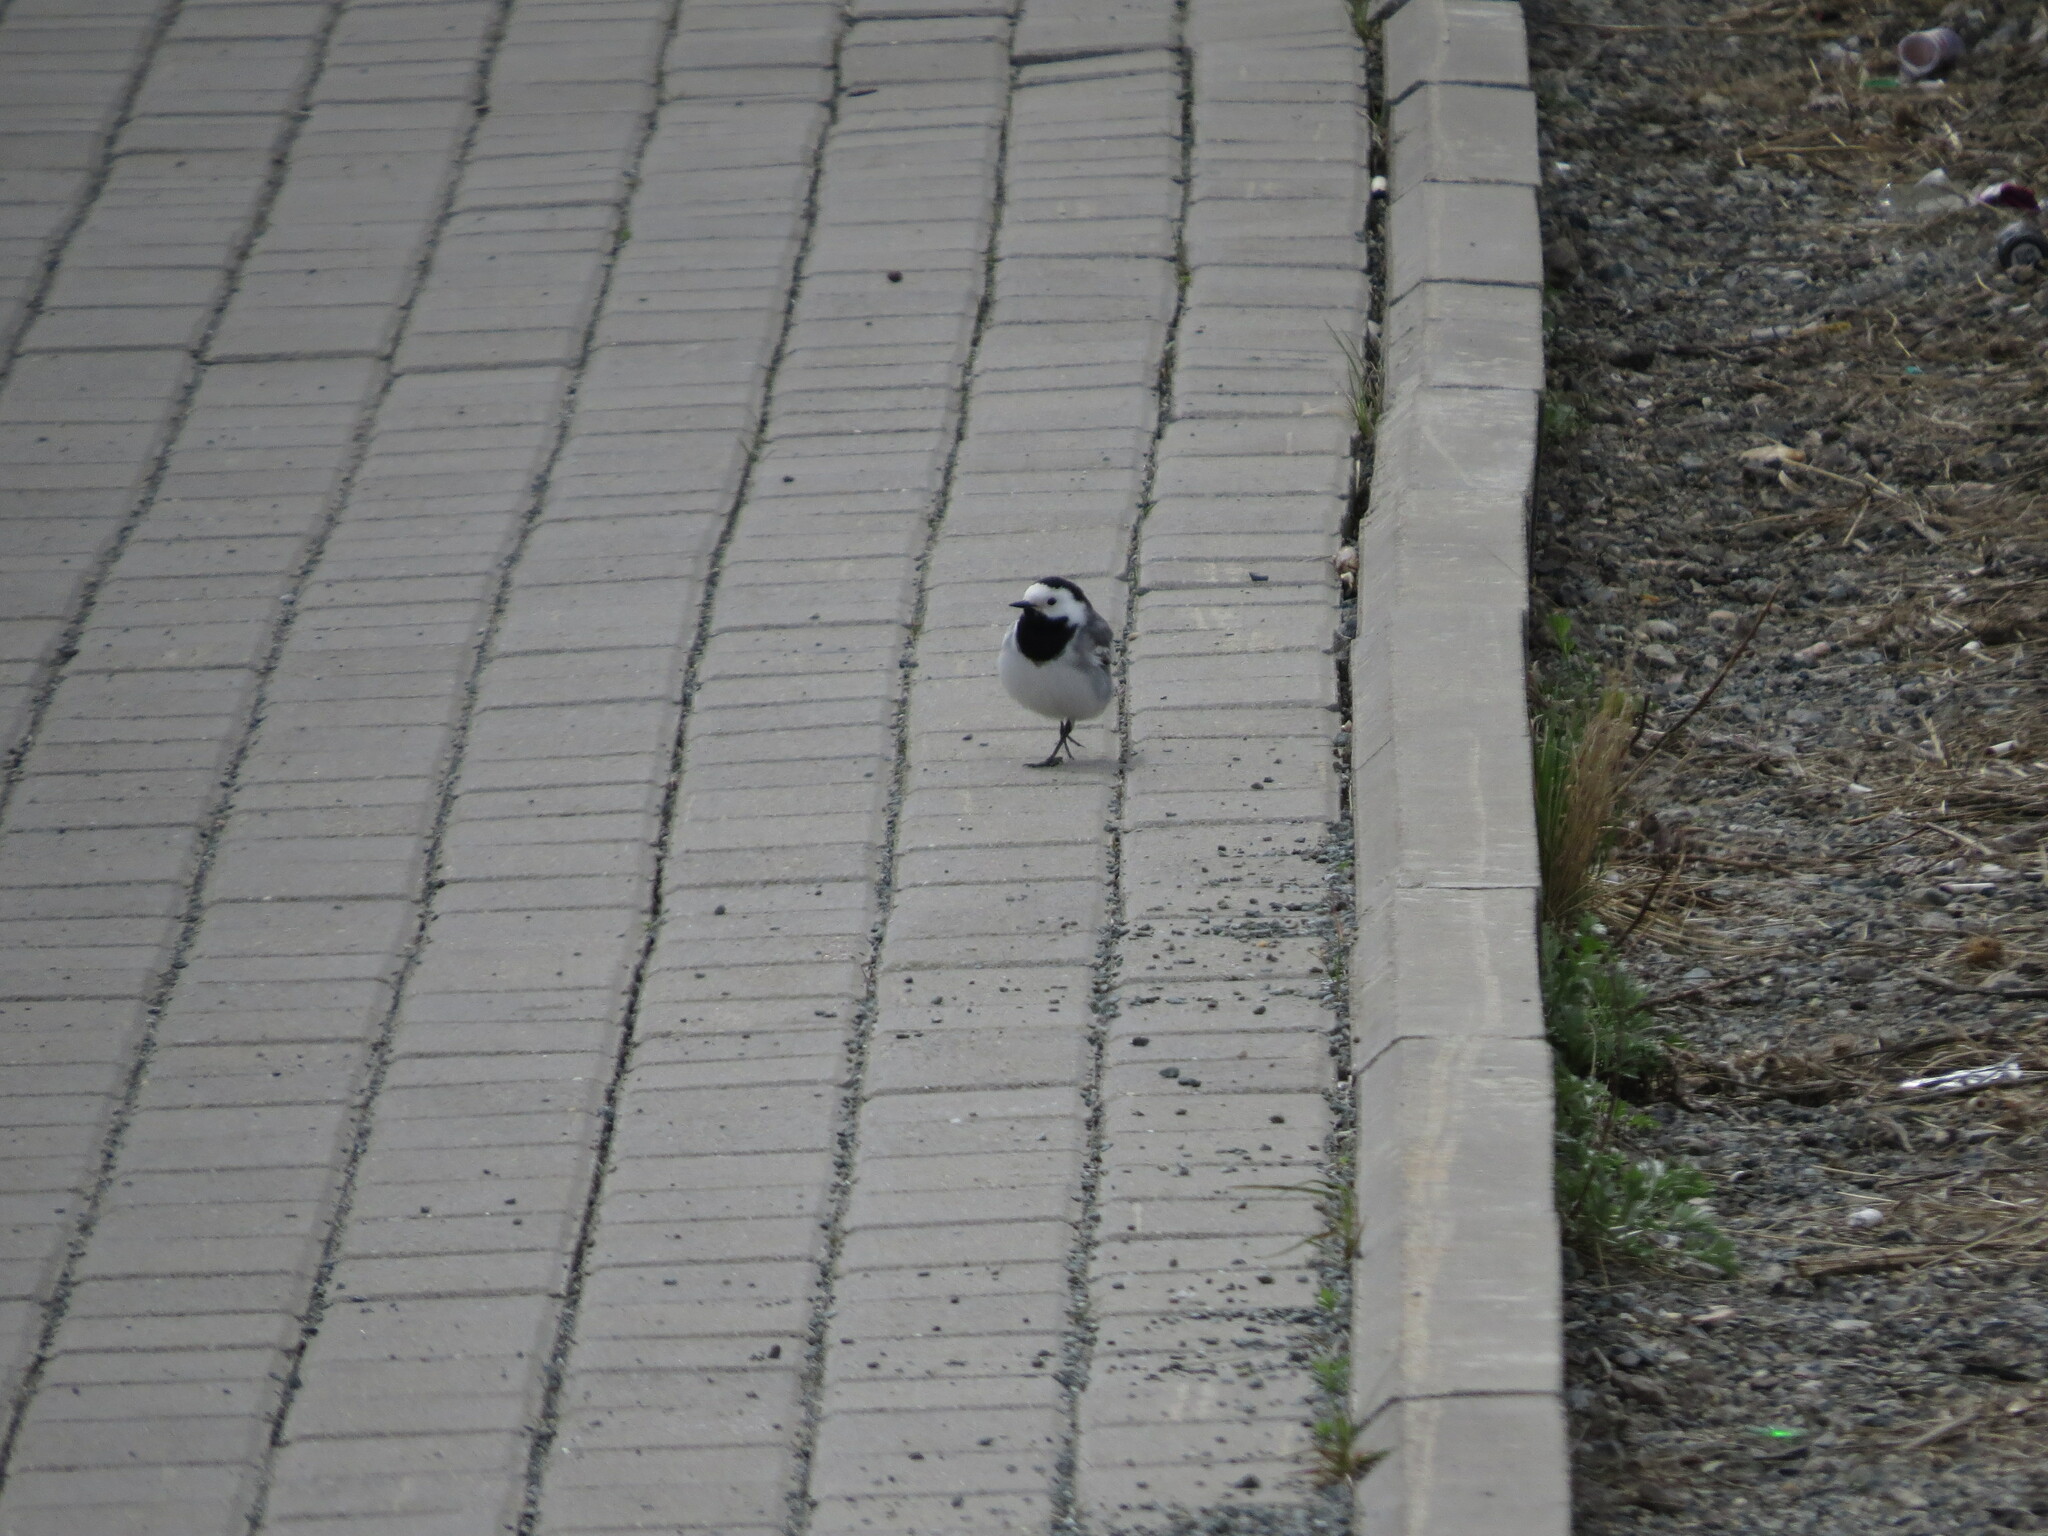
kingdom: Animalia
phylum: Chordata
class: Aves
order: Passeriformes
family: Motacillidae
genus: Motacilla
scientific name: Motacilla alba
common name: White wagtail
